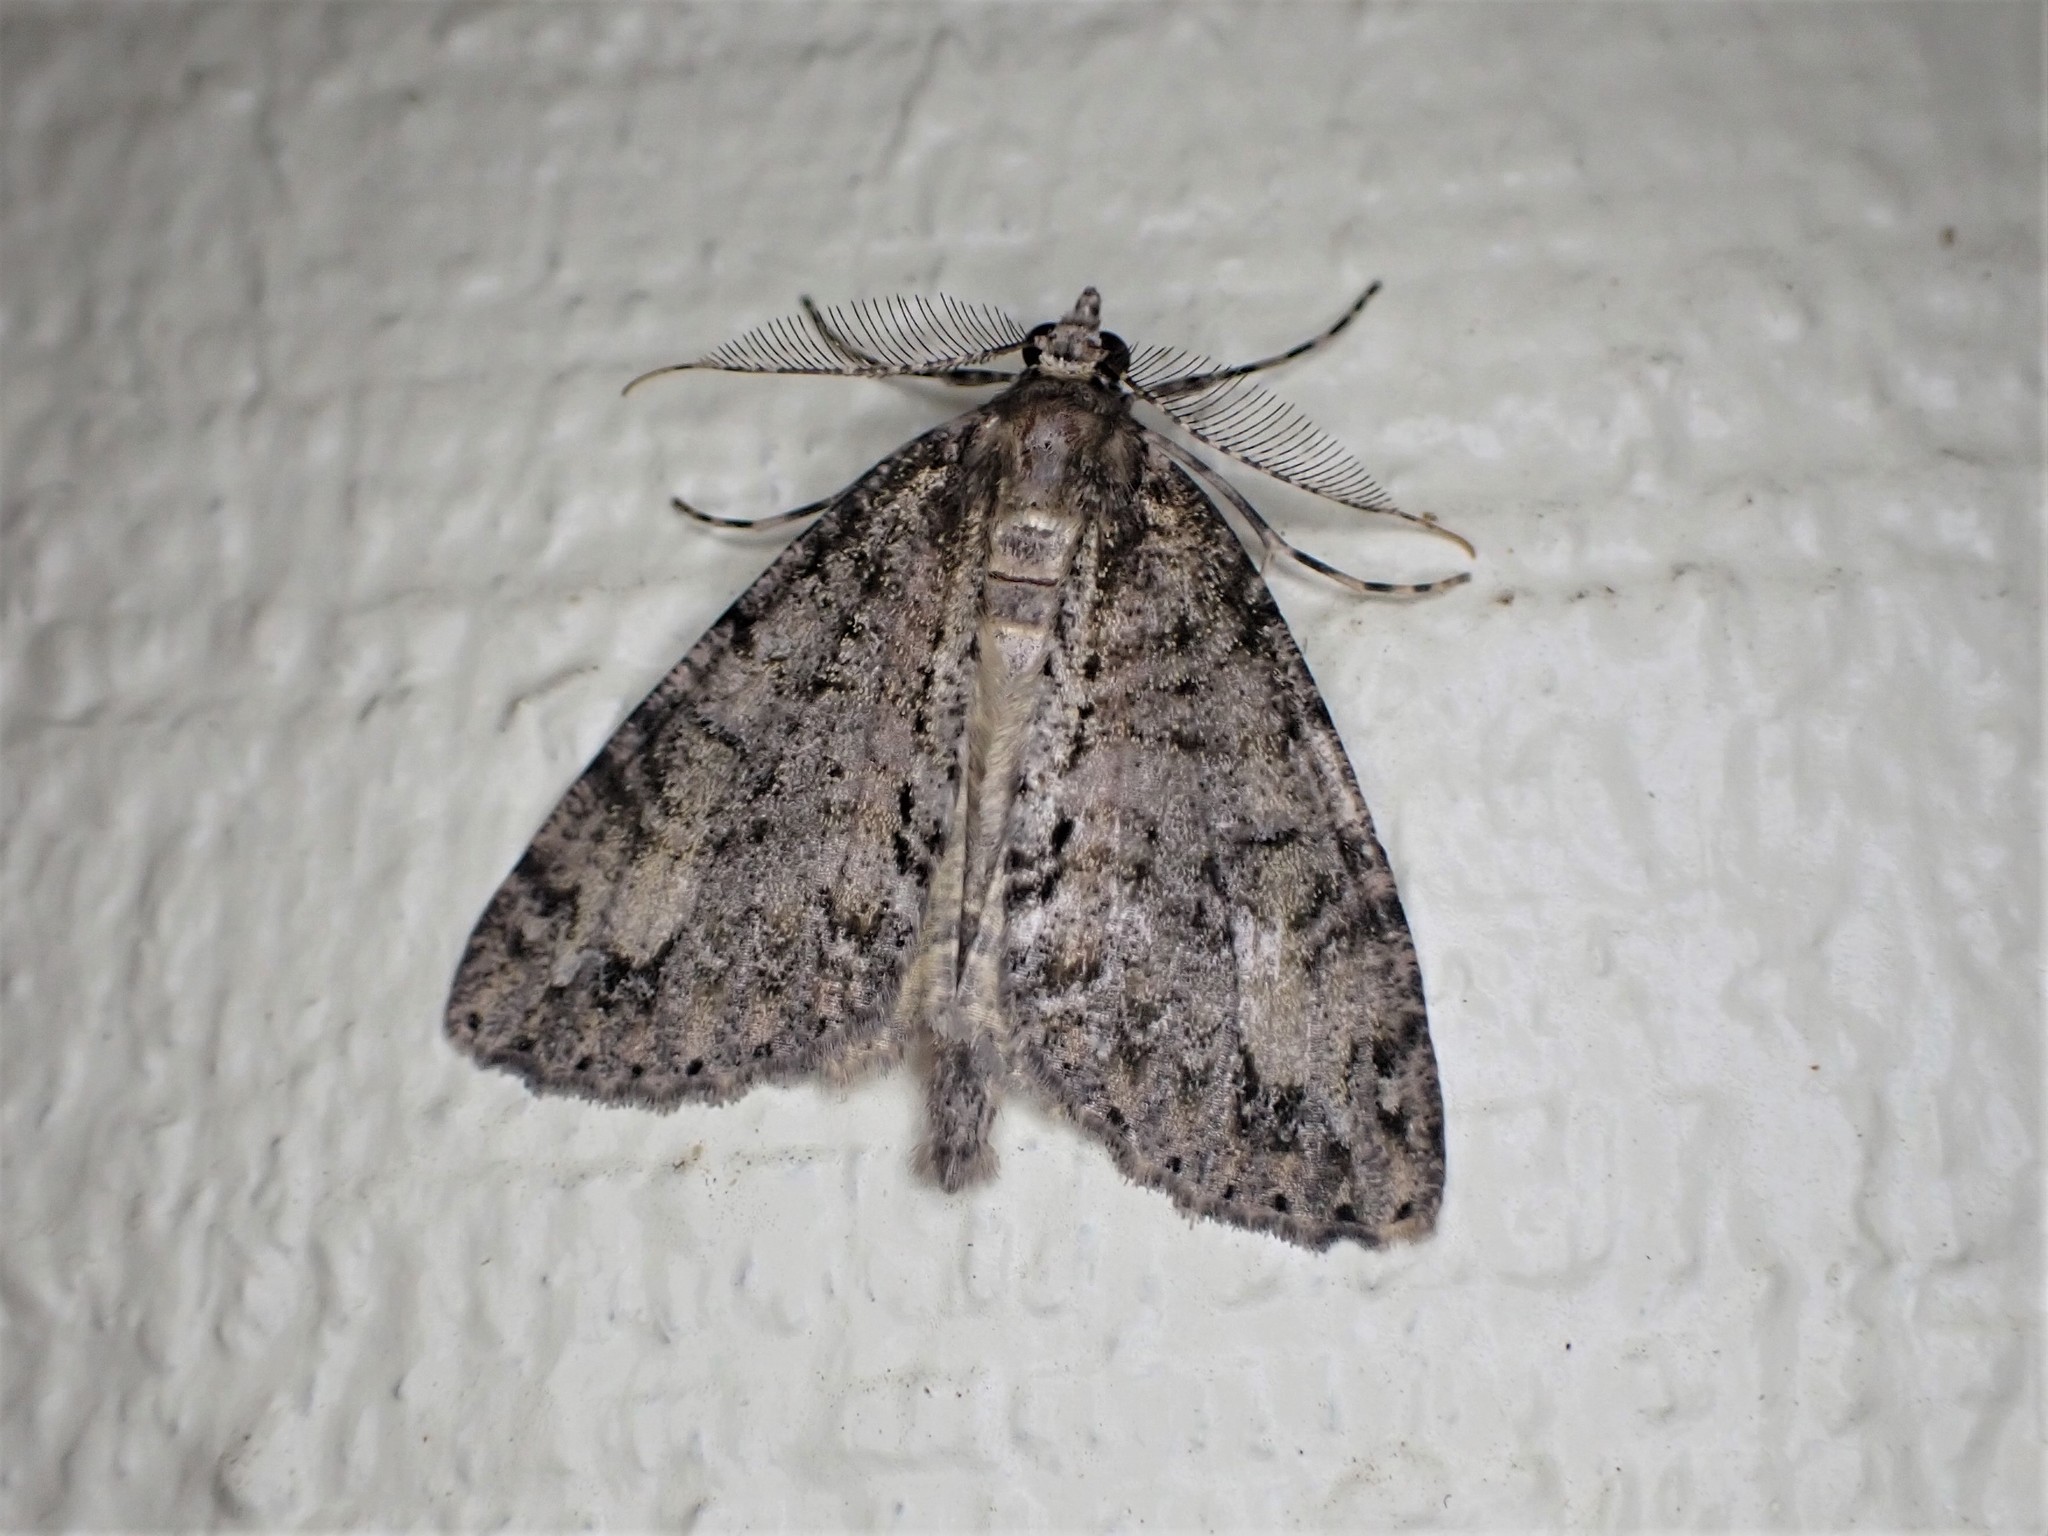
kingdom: Animalia
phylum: Arthropoda
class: Insecta
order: Lepidoptera
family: Geometridae
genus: Pseudocoremia
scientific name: Pseudocoremia suavis
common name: Common forest looper
